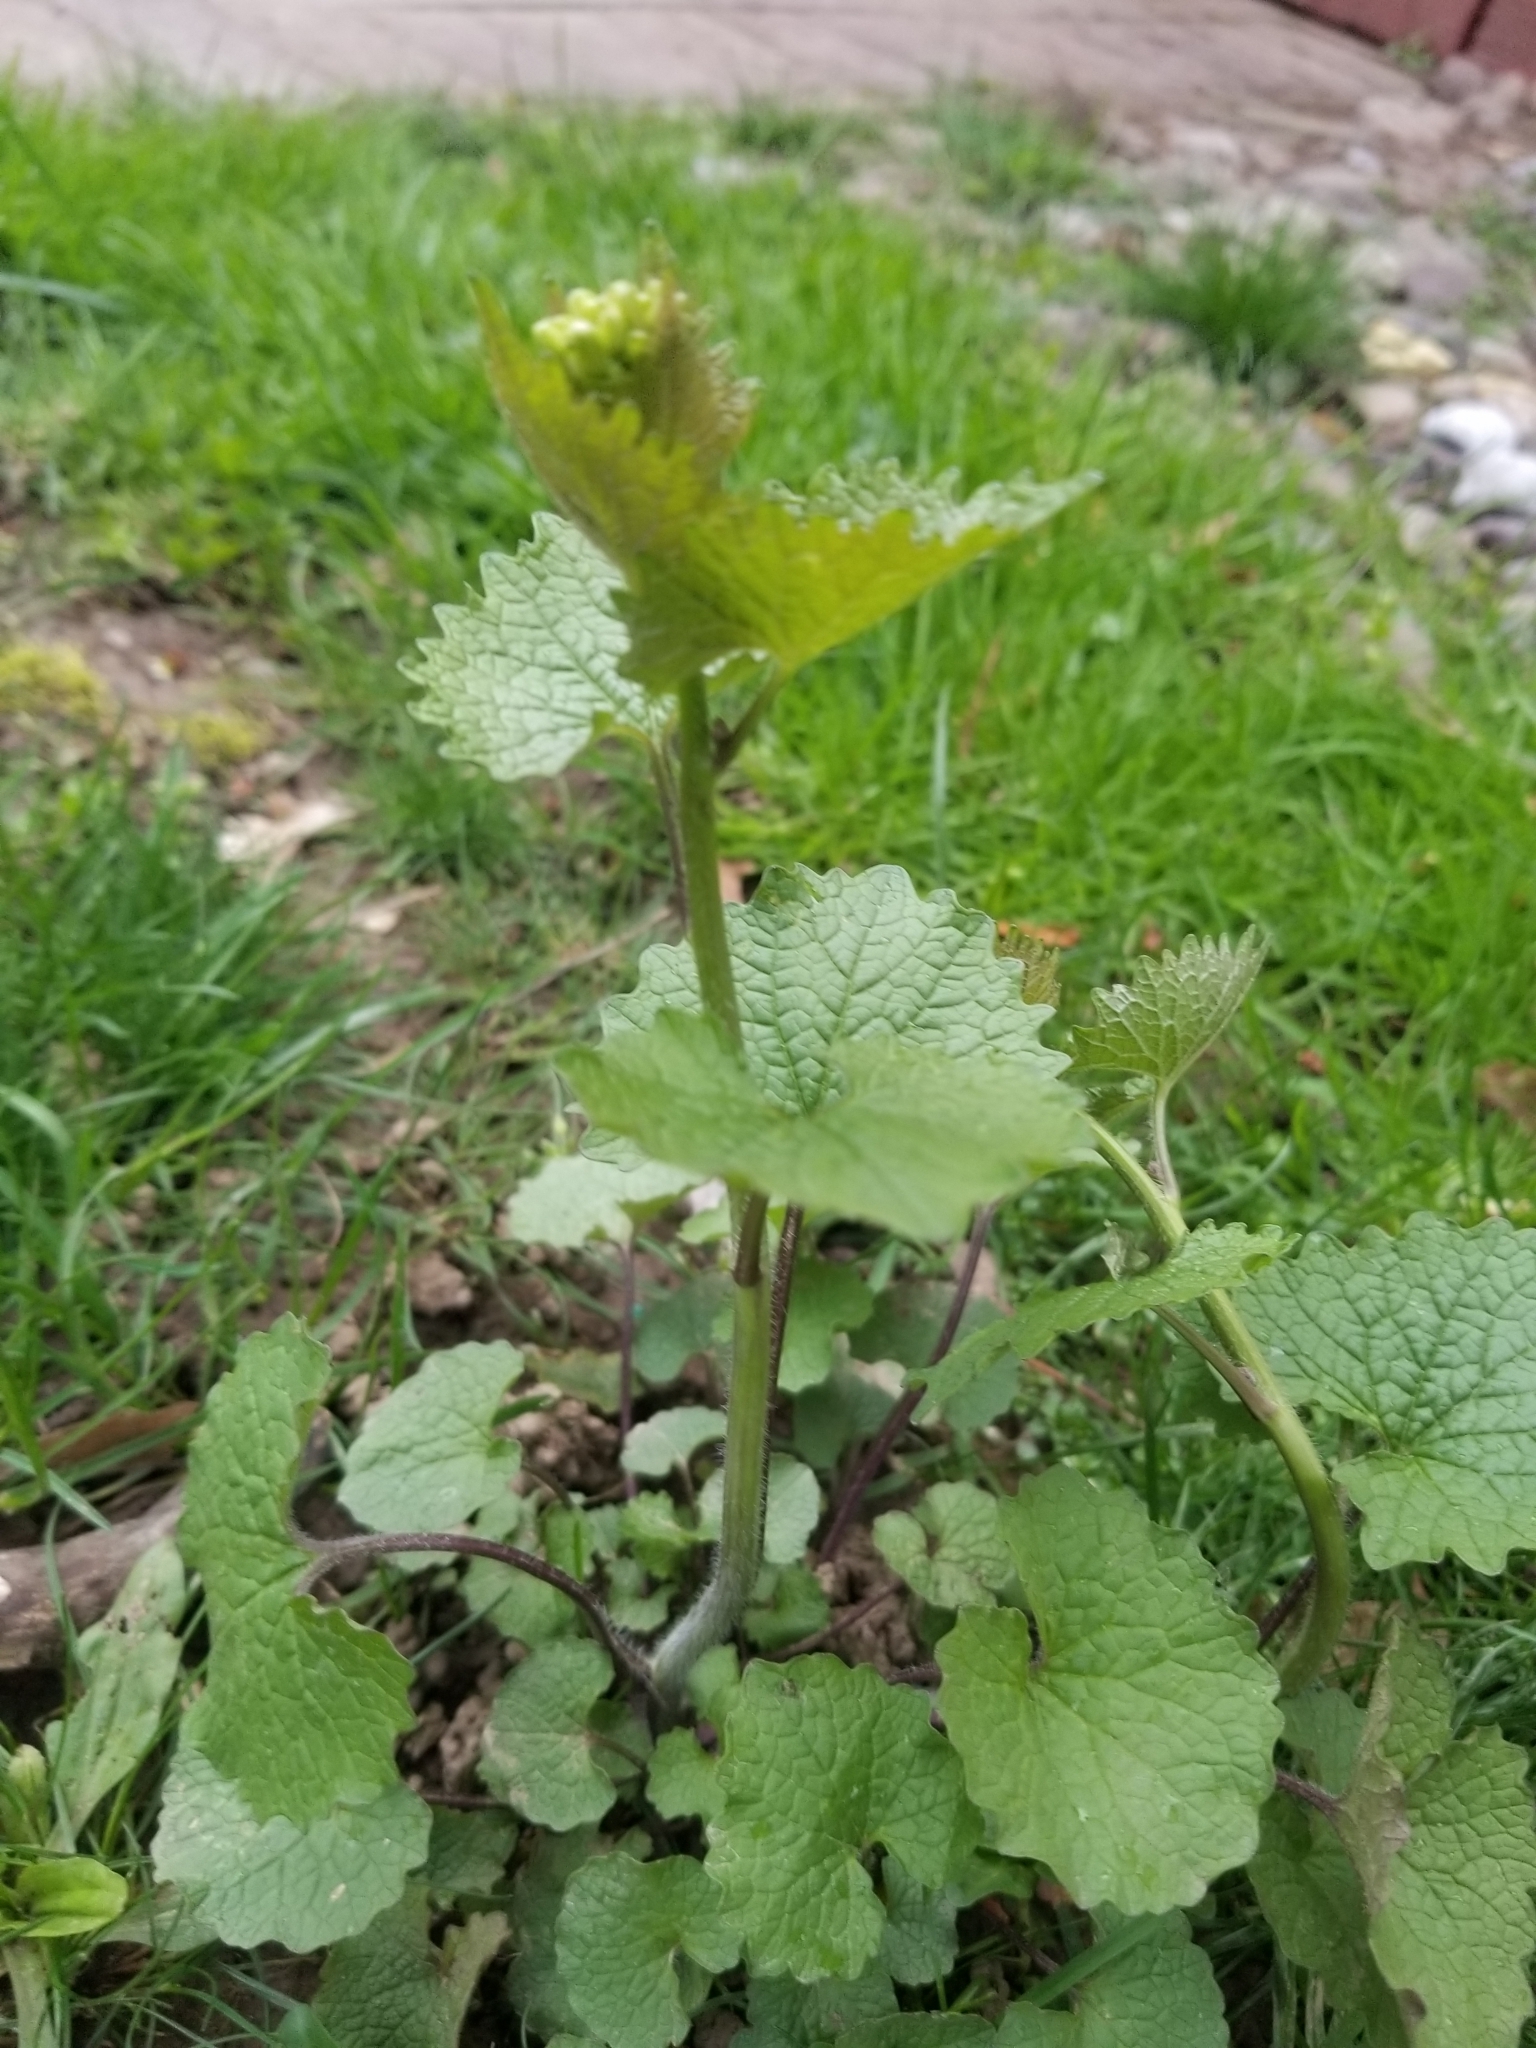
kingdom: Plantae
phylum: Tracheophyta
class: Magnoliopsida
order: Brassicales
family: Brassicaceae
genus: Alliaria
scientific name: Alliaria petiolata
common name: Garlic mustard
